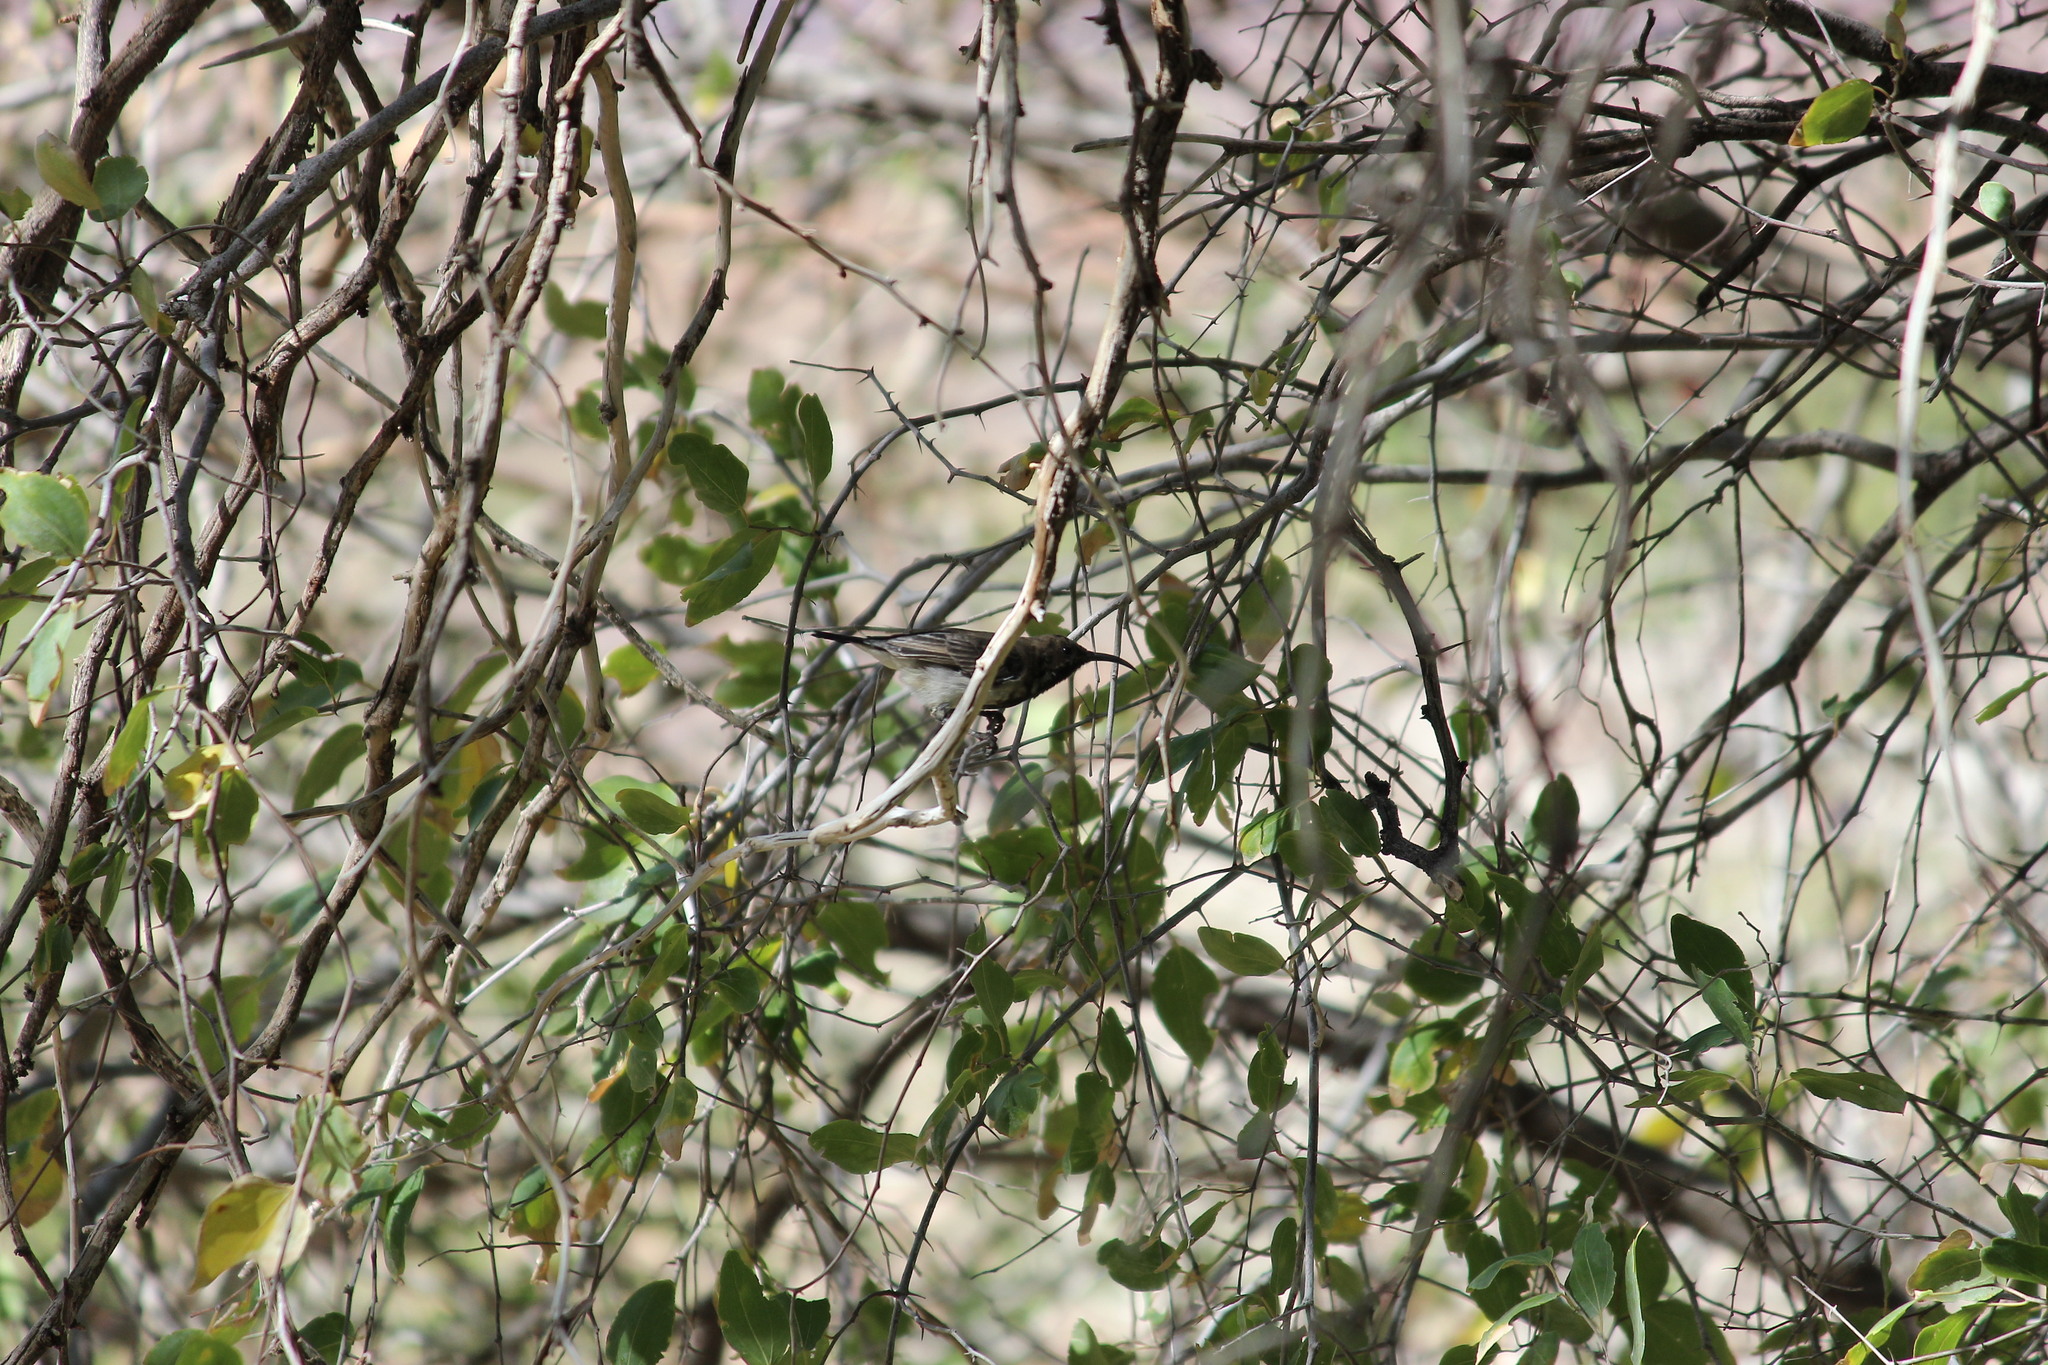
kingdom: Animalia
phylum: Chordata
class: Aves
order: Passeriformes
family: Nectariniidae
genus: Cinnyris
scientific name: Cinnyris fuscus
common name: Dusky sunbird
